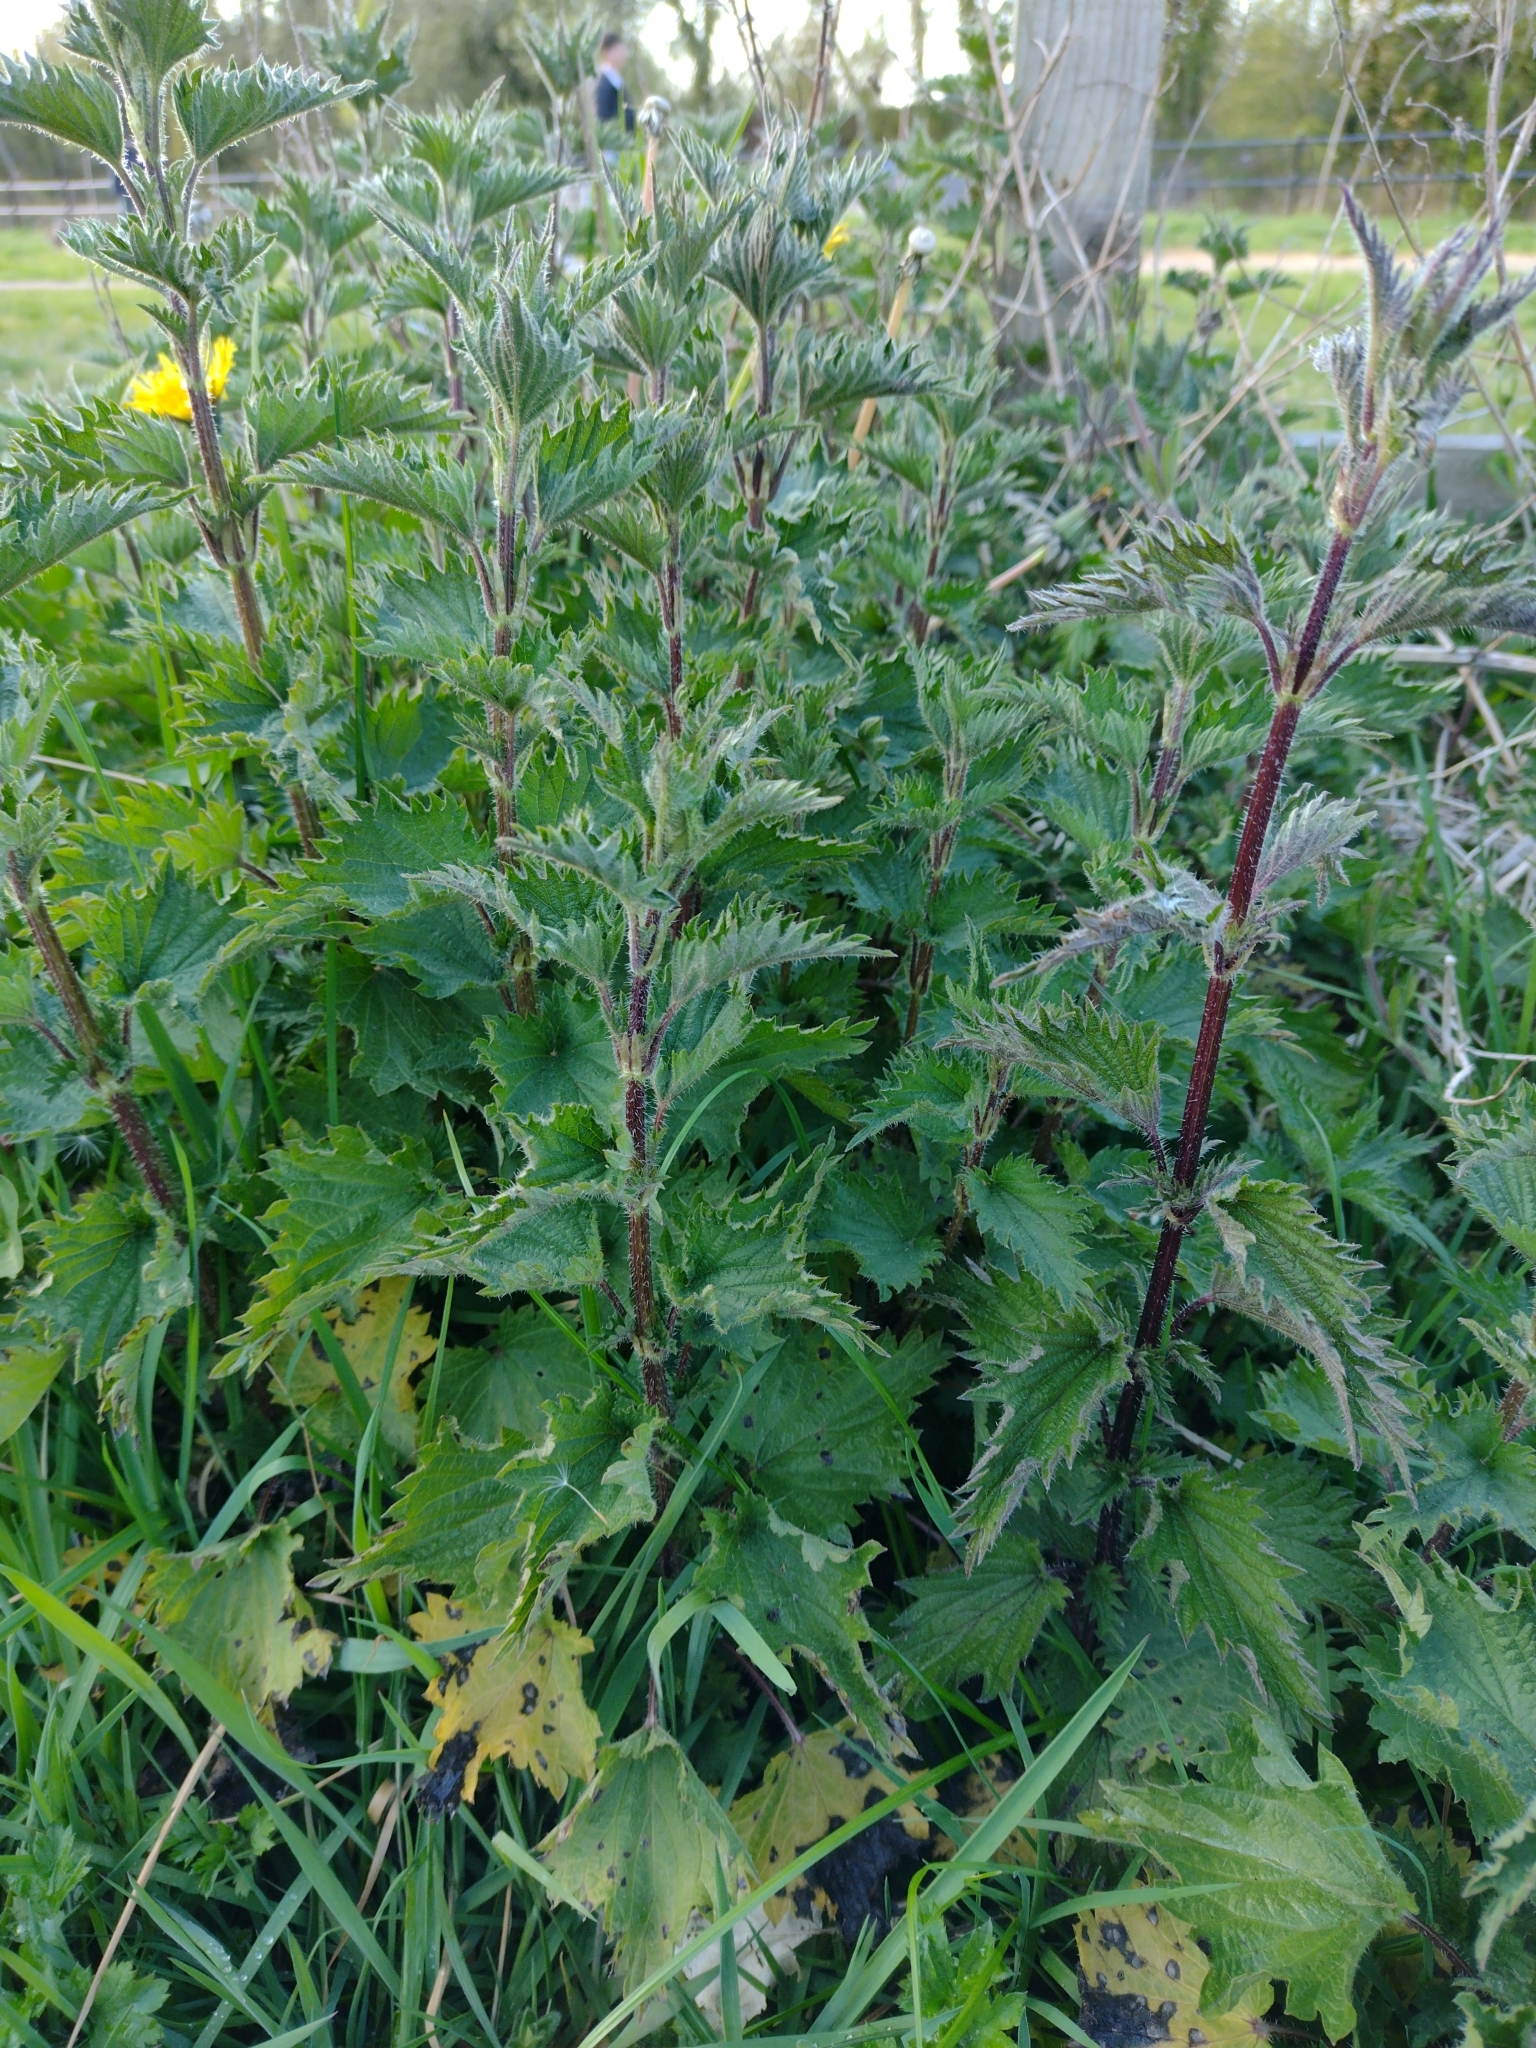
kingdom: Plantae
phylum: Tracheophyta
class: Magnoliopsida
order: Rosales
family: Urticaceae
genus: Urtica
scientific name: Urtica dioica
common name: Common nettle
